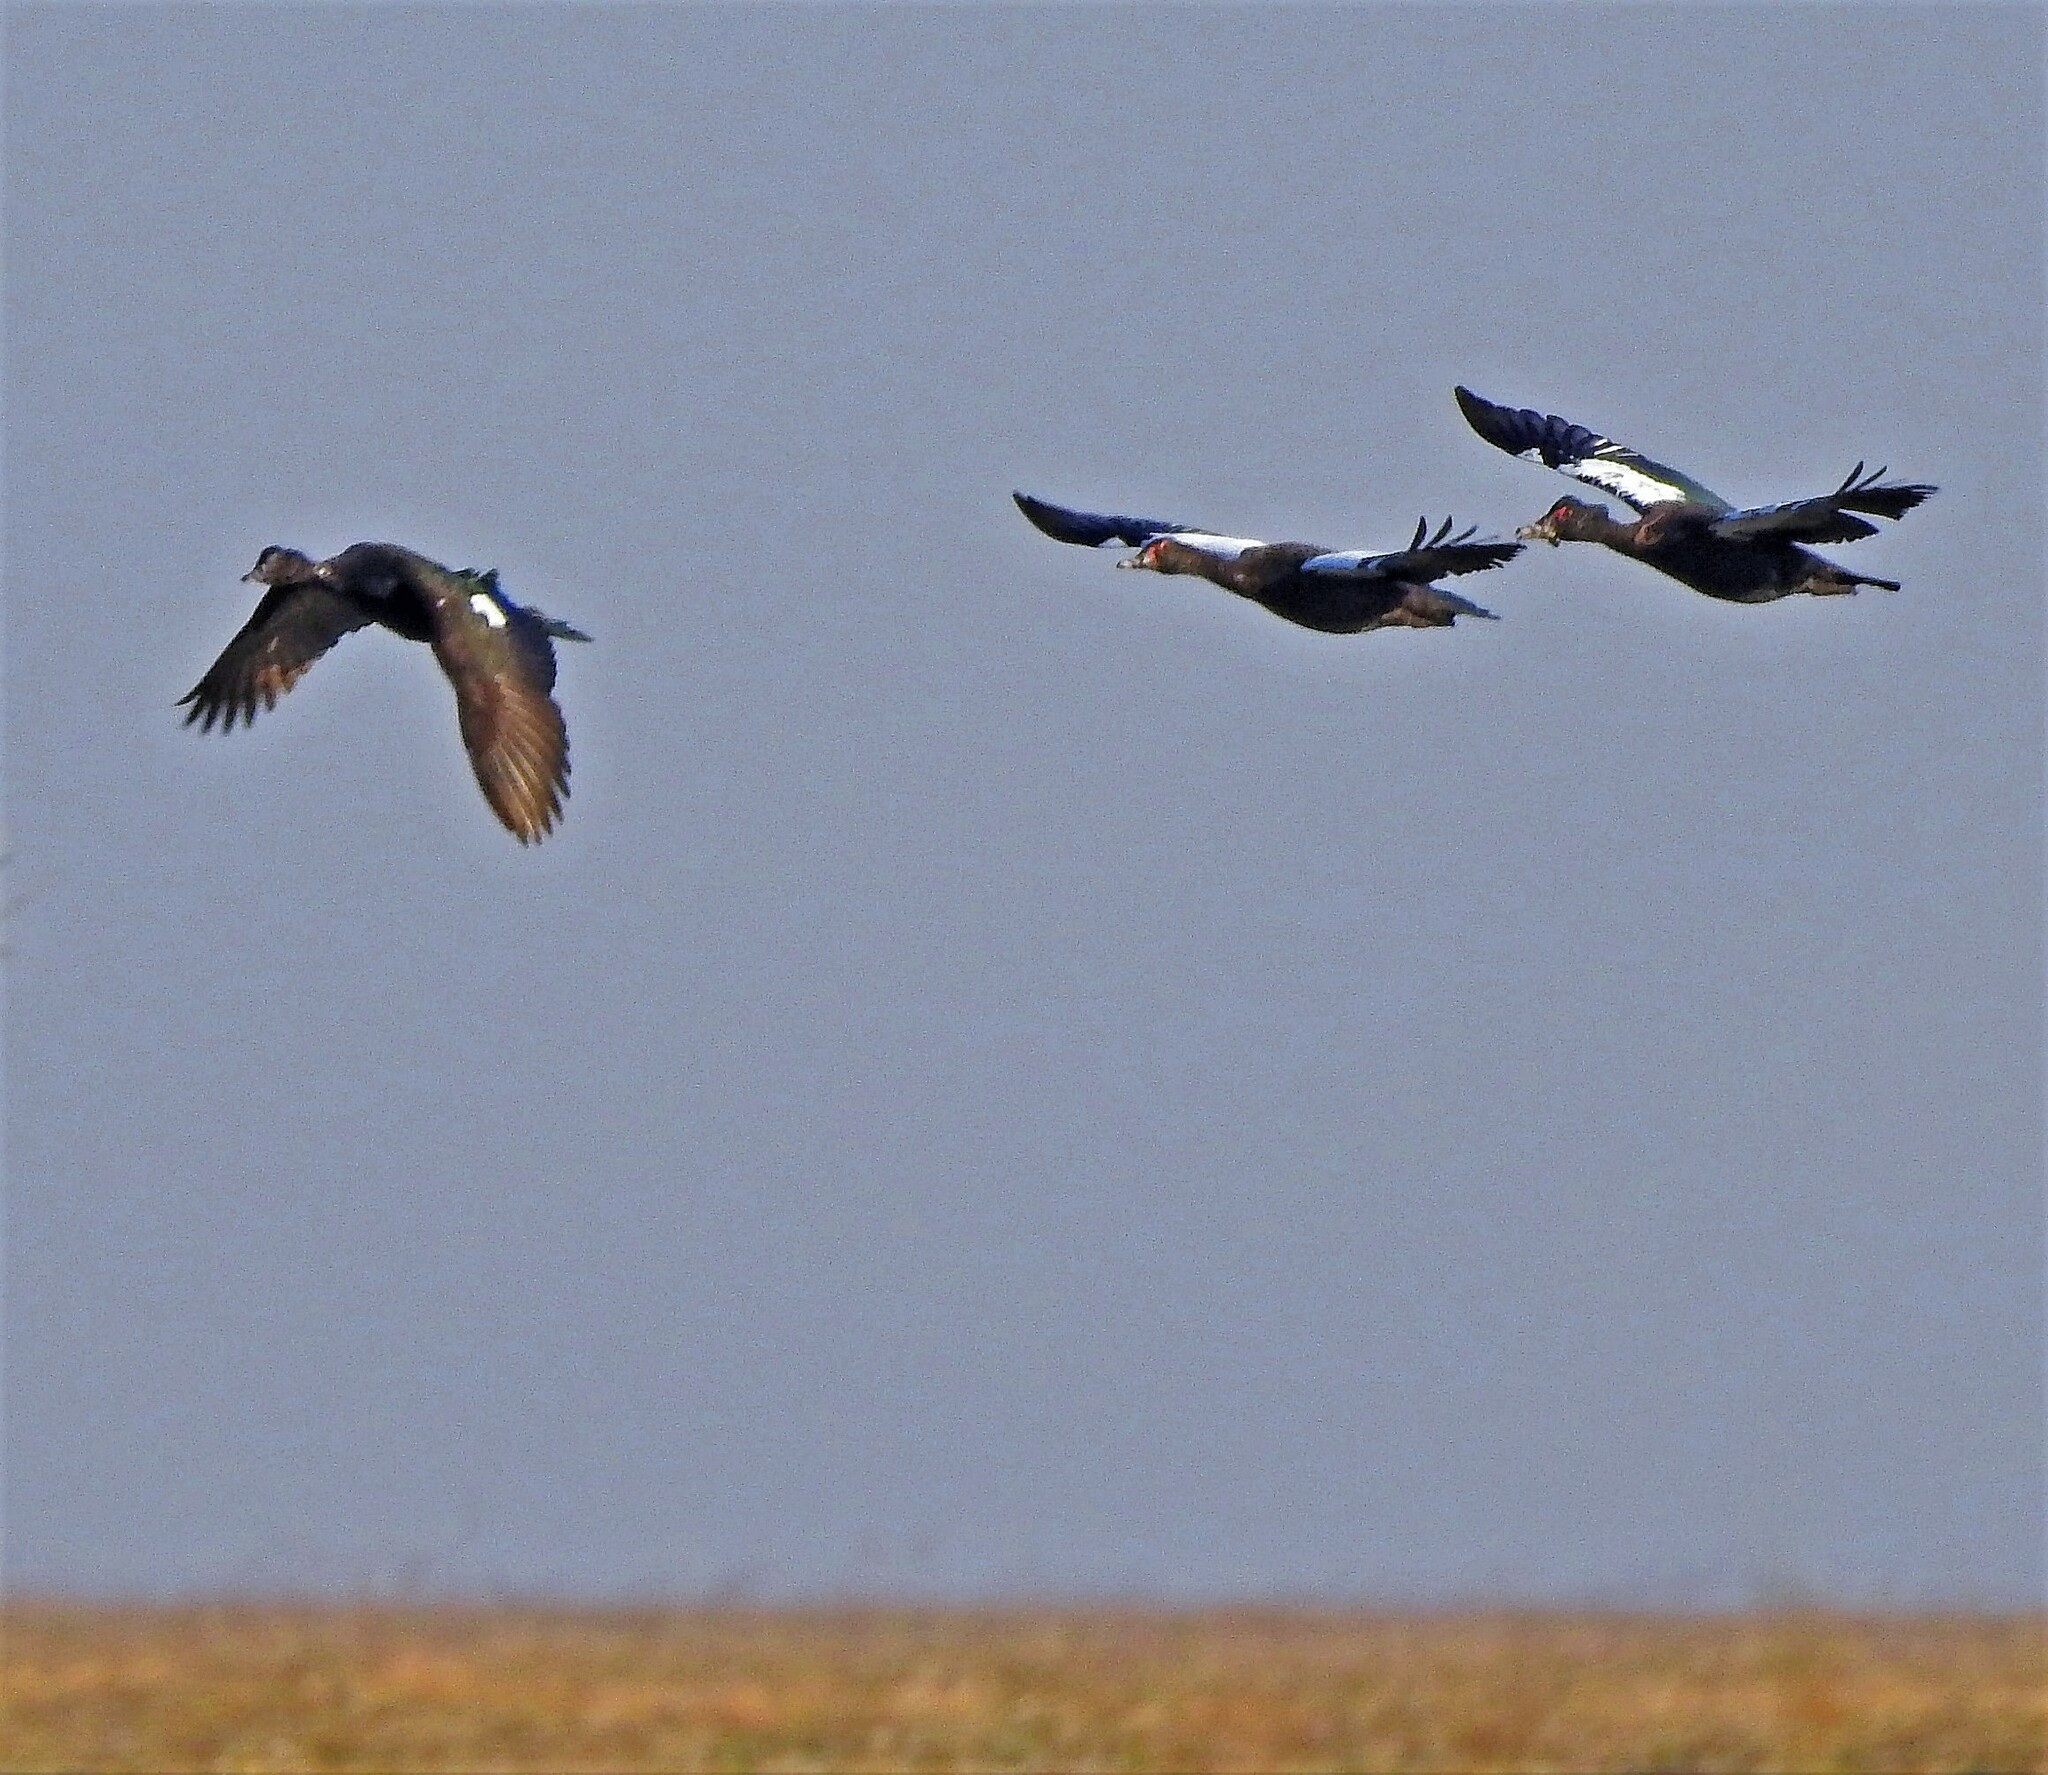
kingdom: Animalia
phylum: Chordata
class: Aves
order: Anseriformes
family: Anatidae
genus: Cairina
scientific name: Cairina moschata
